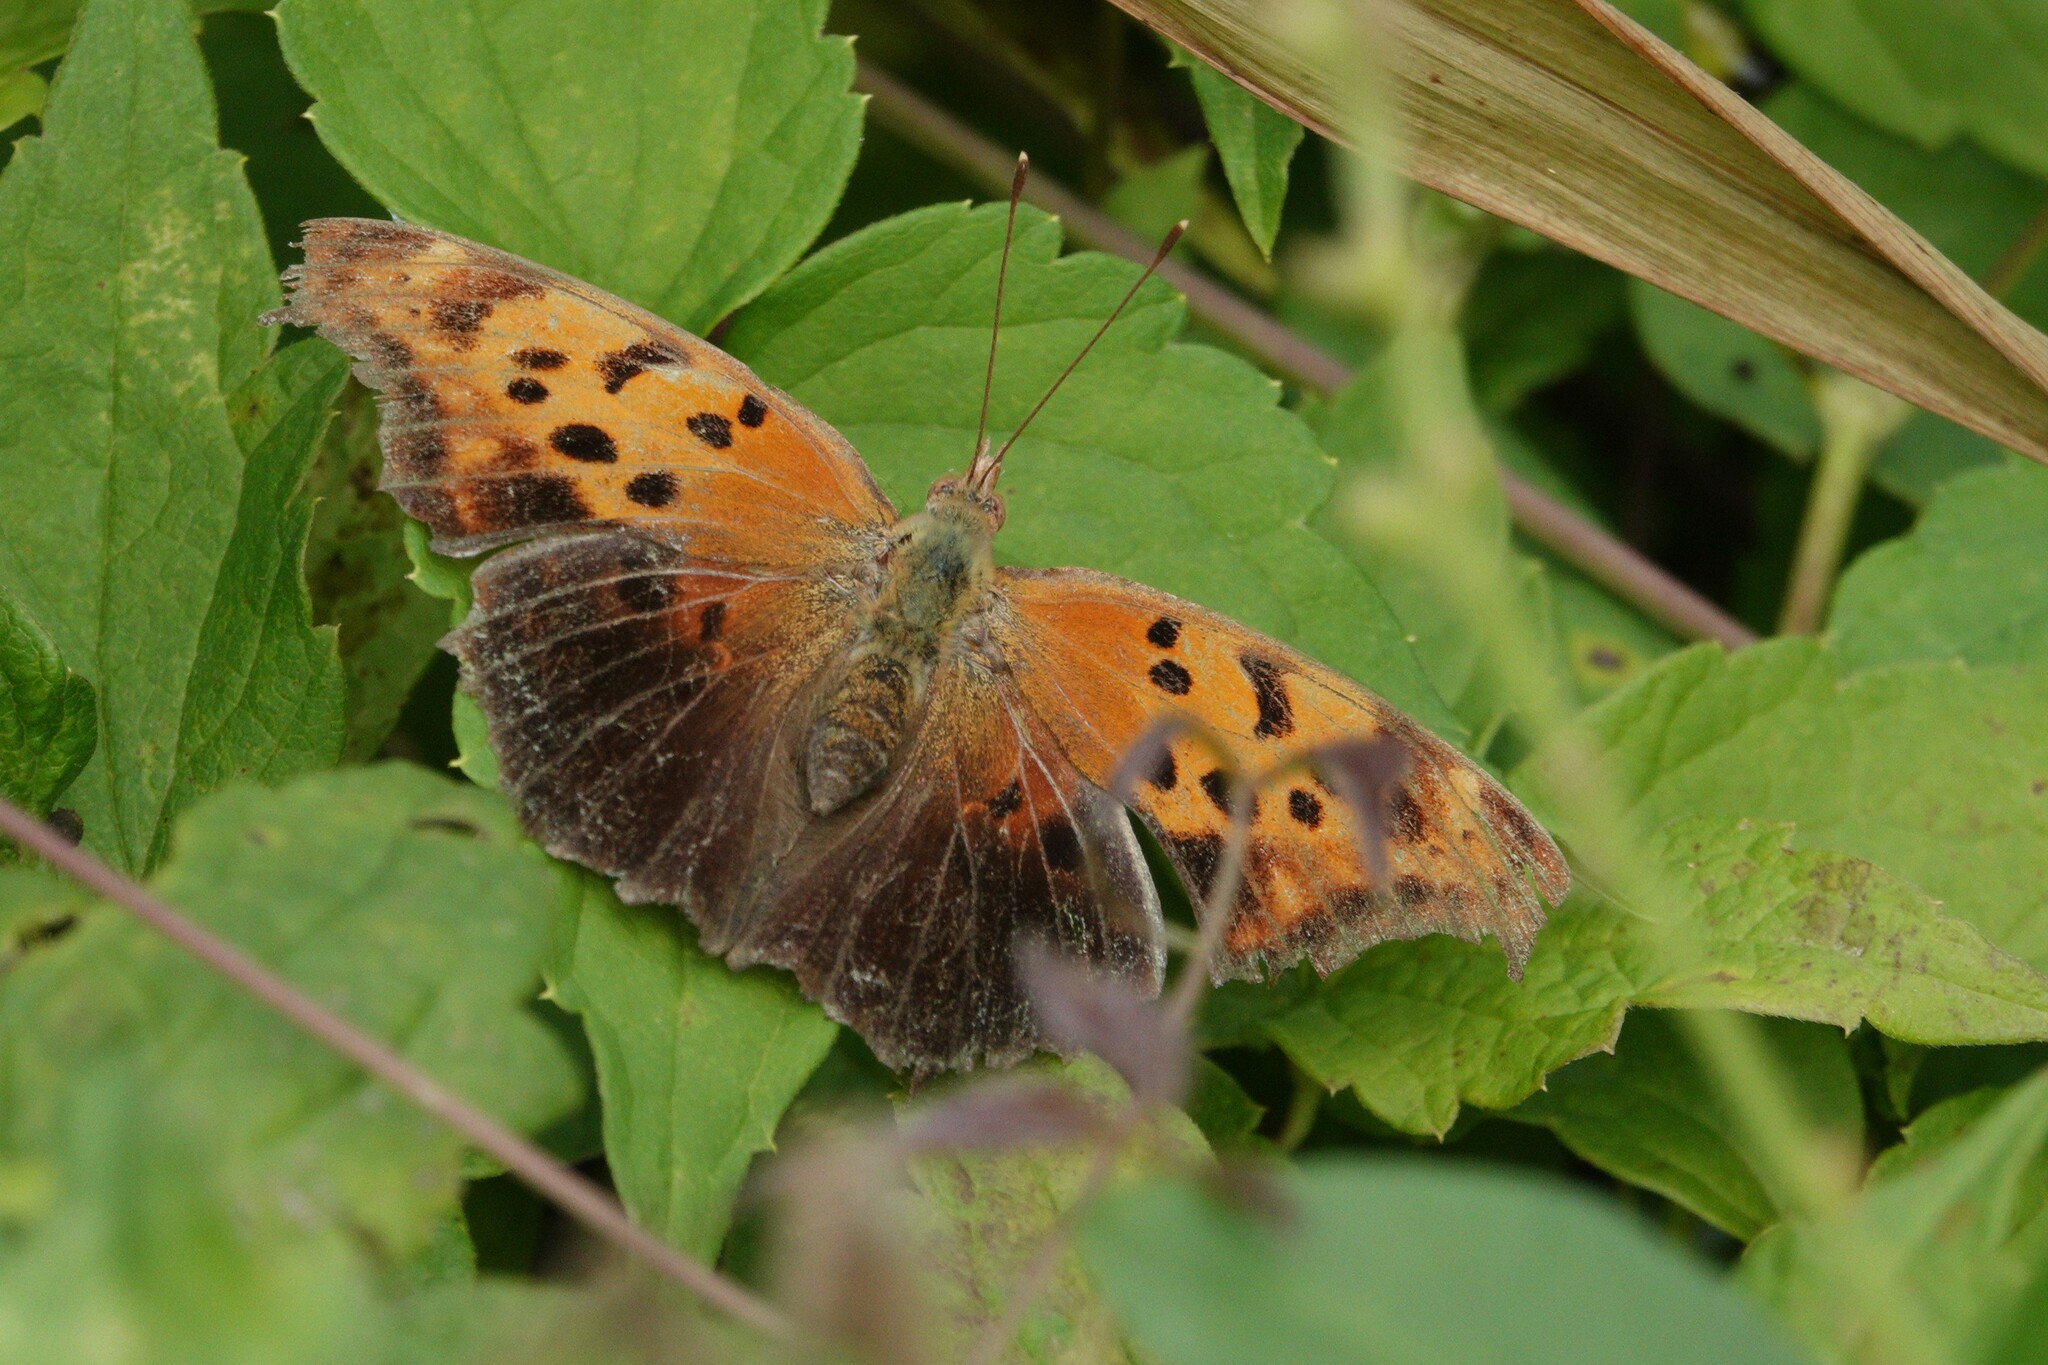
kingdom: Animalia
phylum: Arthropoda
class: Insecta
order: Lepidoptera
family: Nymphalidae
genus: Polygonia
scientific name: Polygonia interrogationis
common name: Question mark
